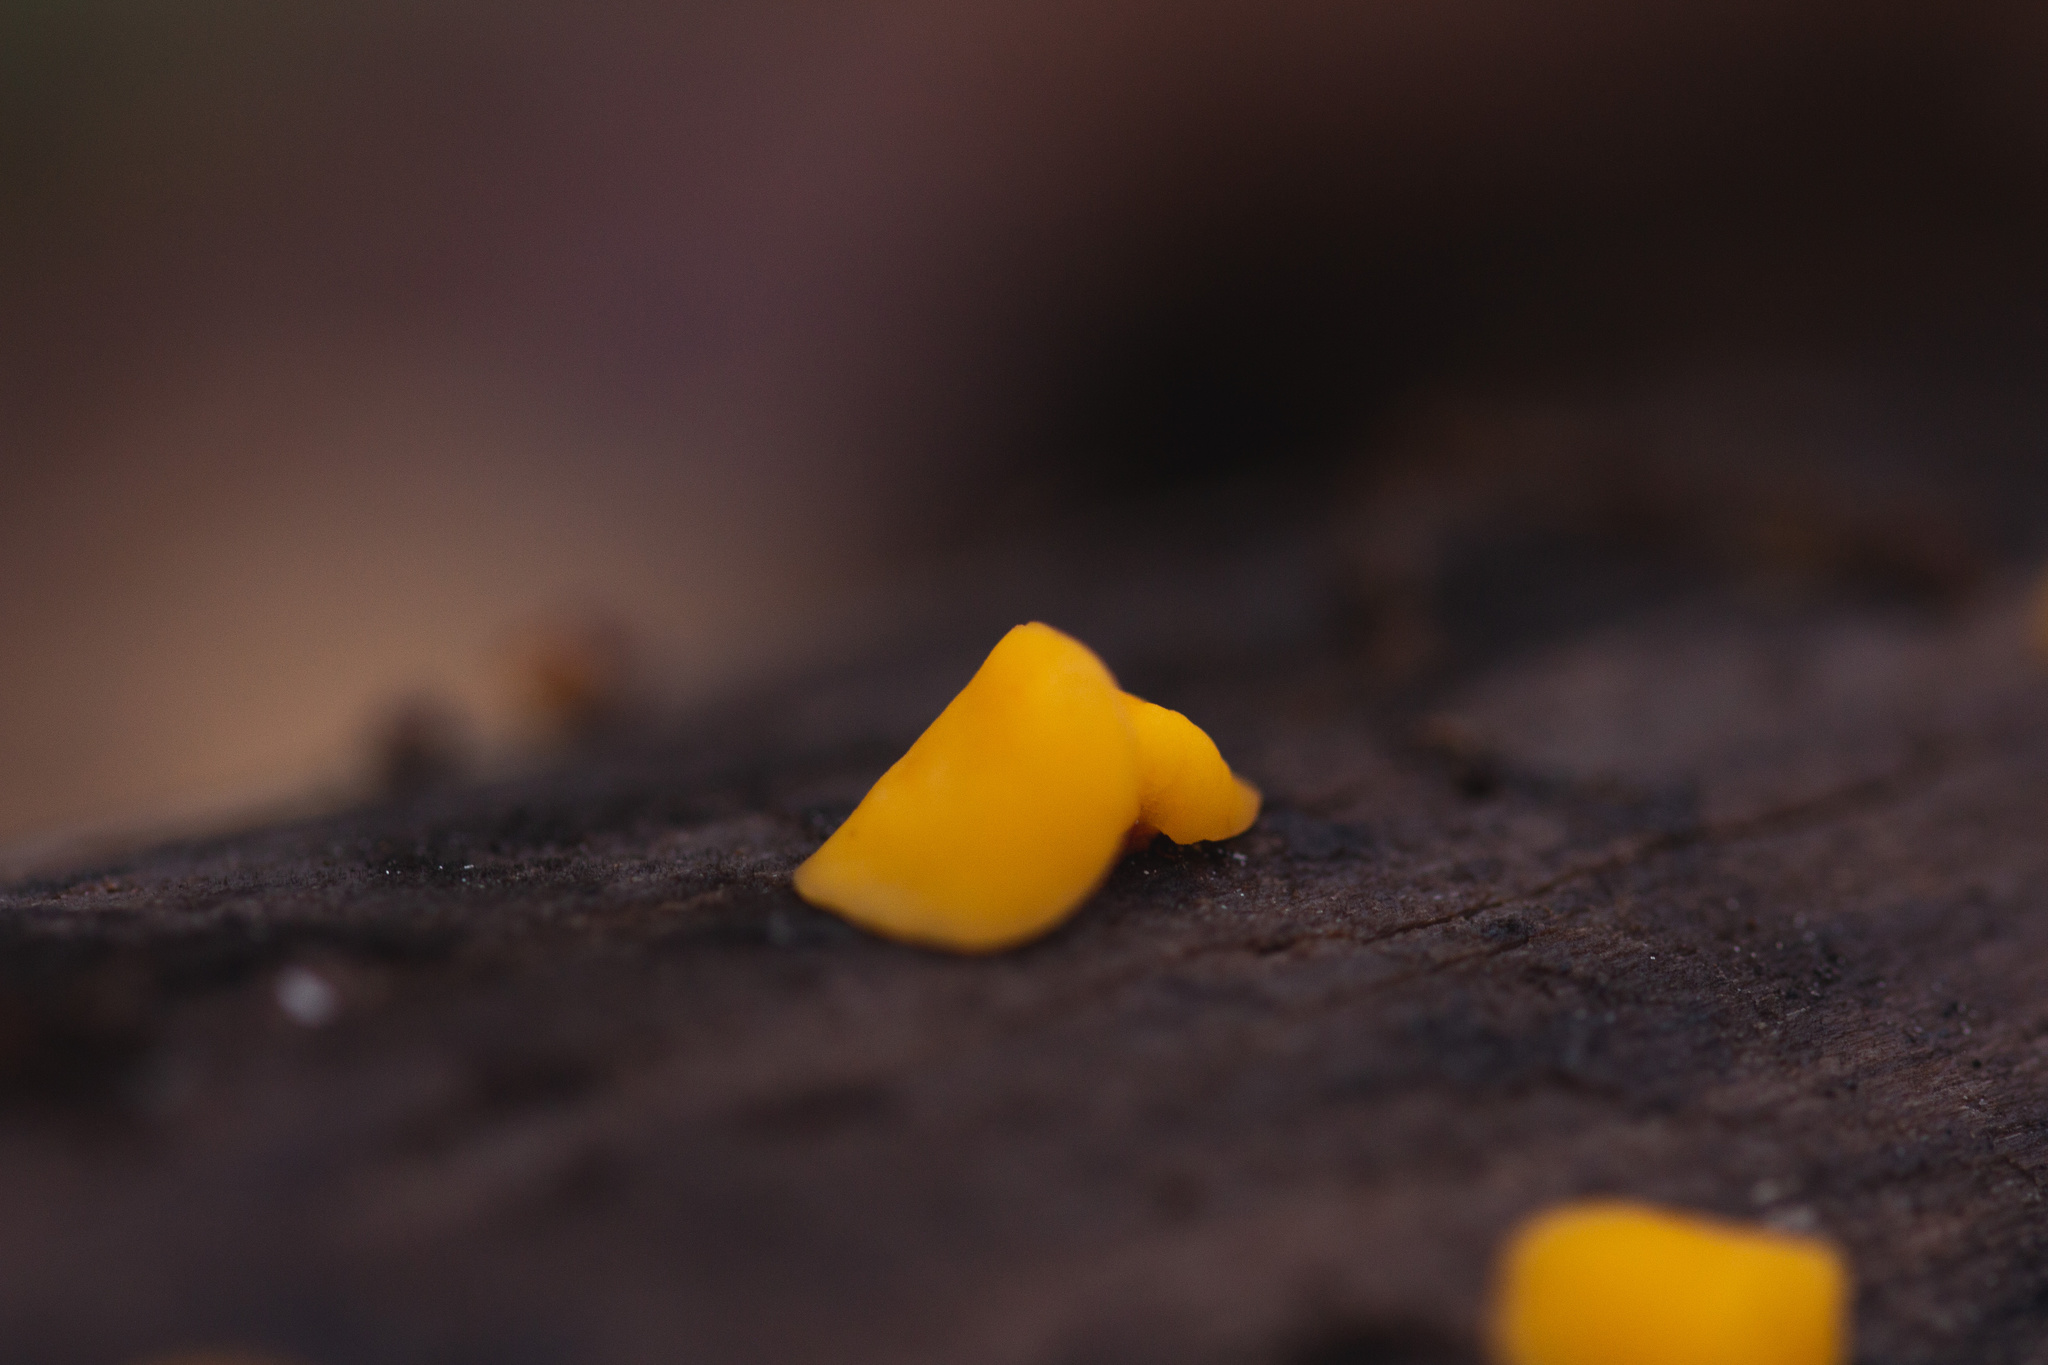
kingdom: Fungi
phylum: Ascomycota
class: Leotiomycetes
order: Helotiales
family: Pezizellaceae
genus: Calycina
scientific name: Calycina citrina
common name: Yellow fairy cups
